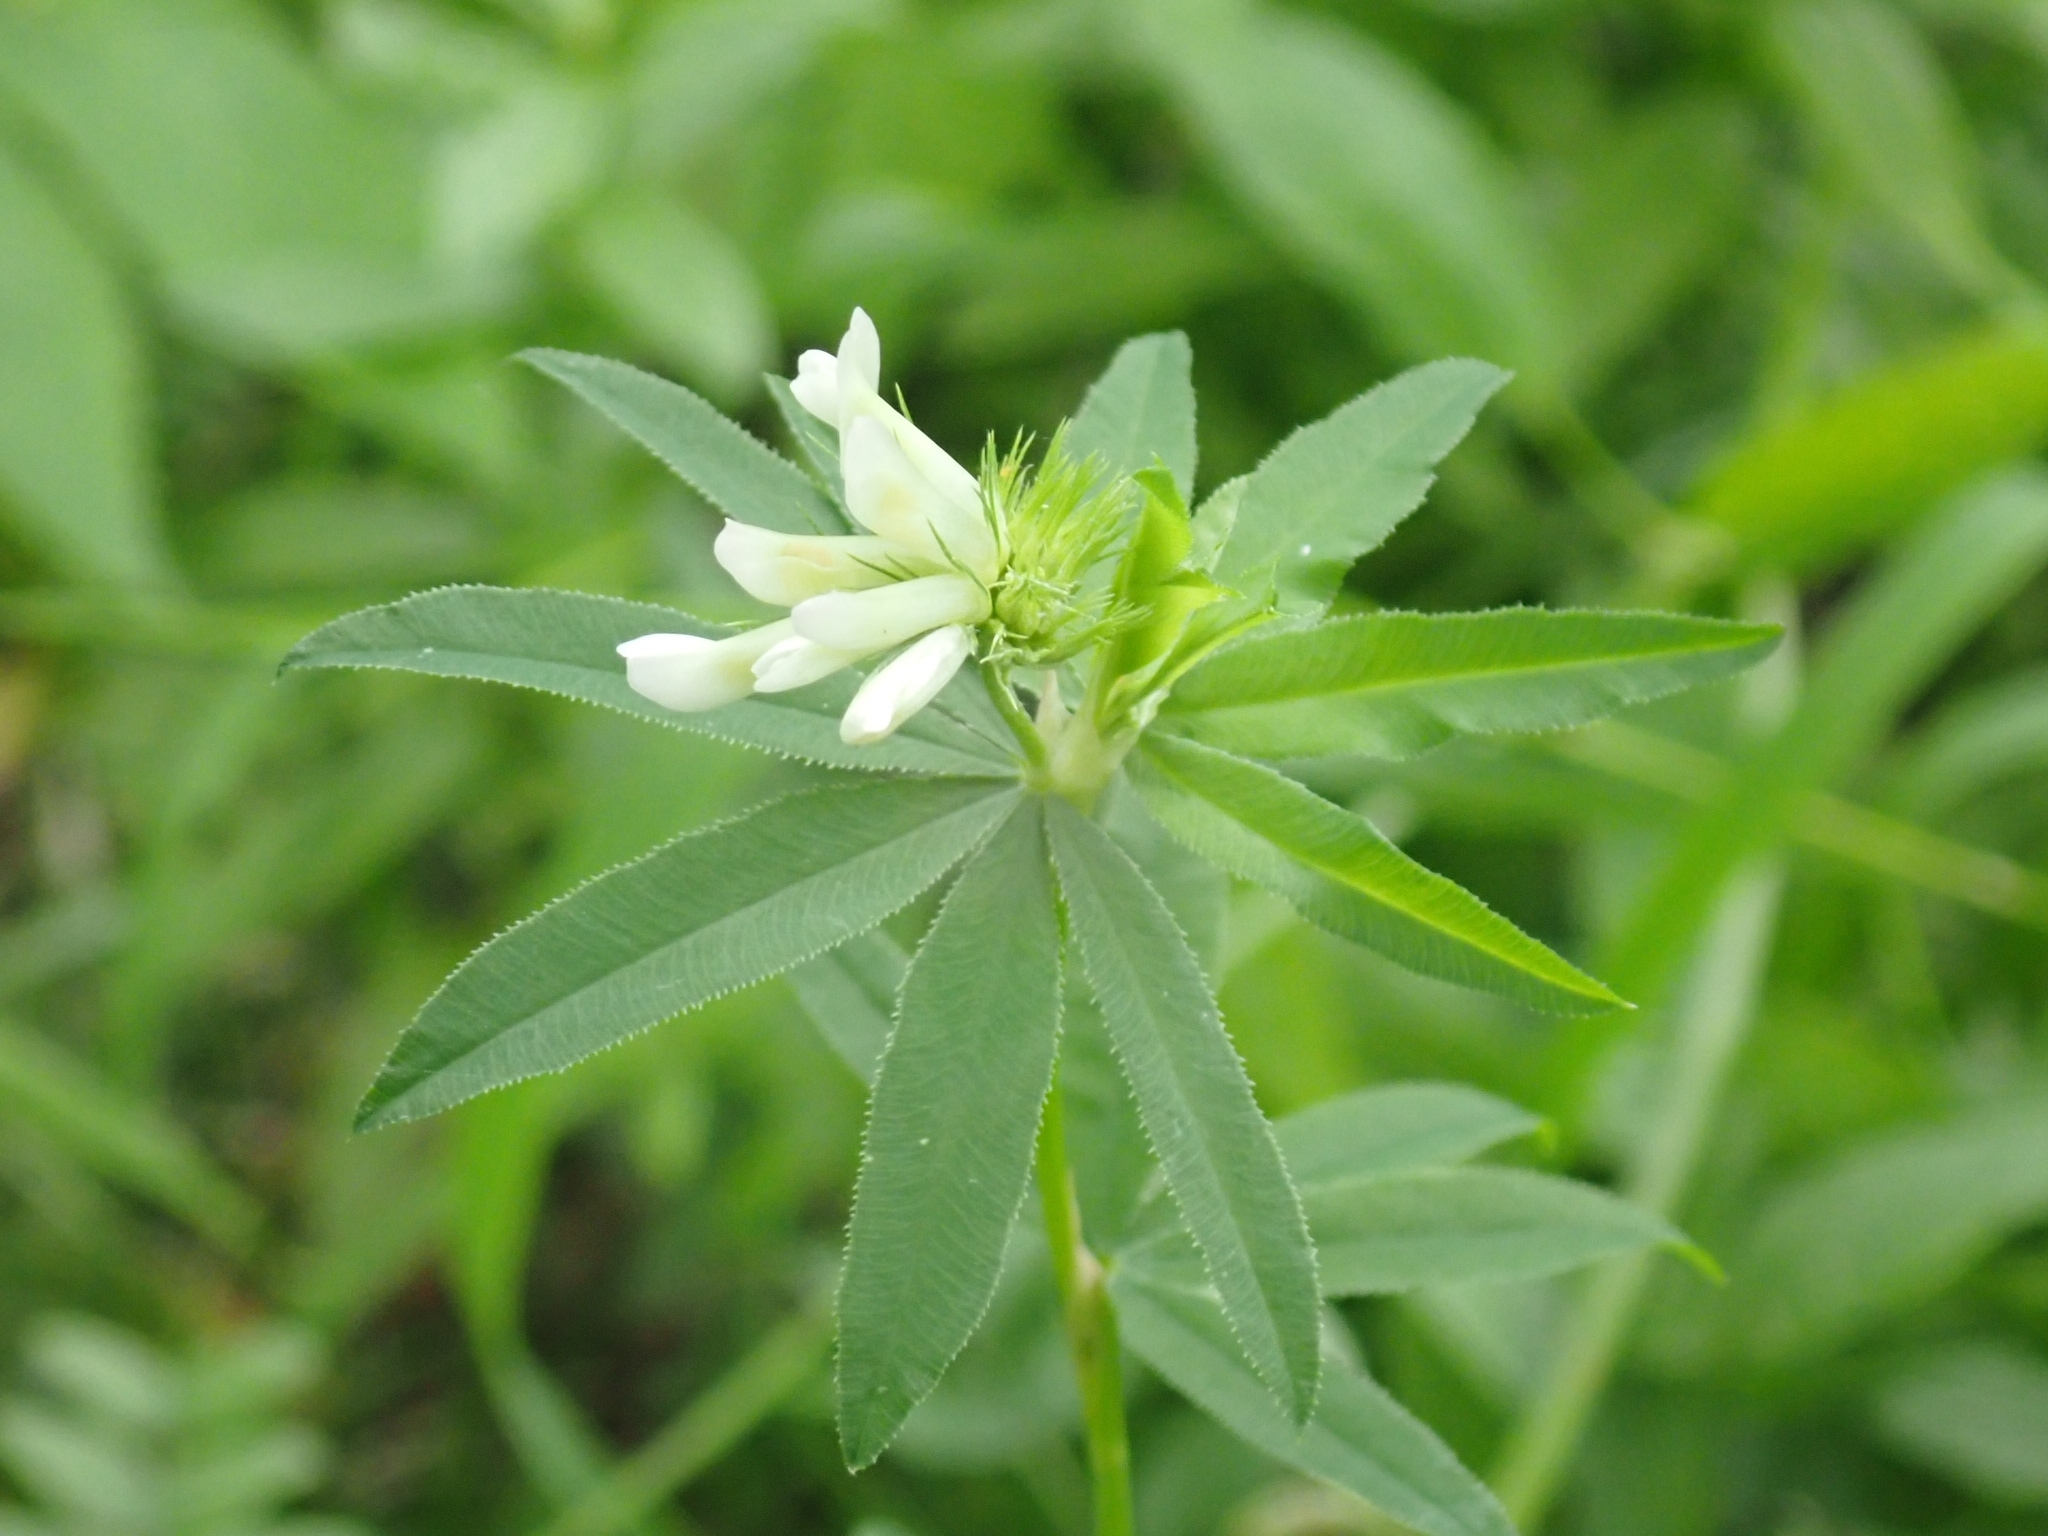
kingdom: Plantae
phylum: Tracheophyta
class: Magnoliopsida
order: Fabales
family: Fabaceae
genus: Trifolium
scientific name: Trifolium lupinaster
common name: Lupine clover
